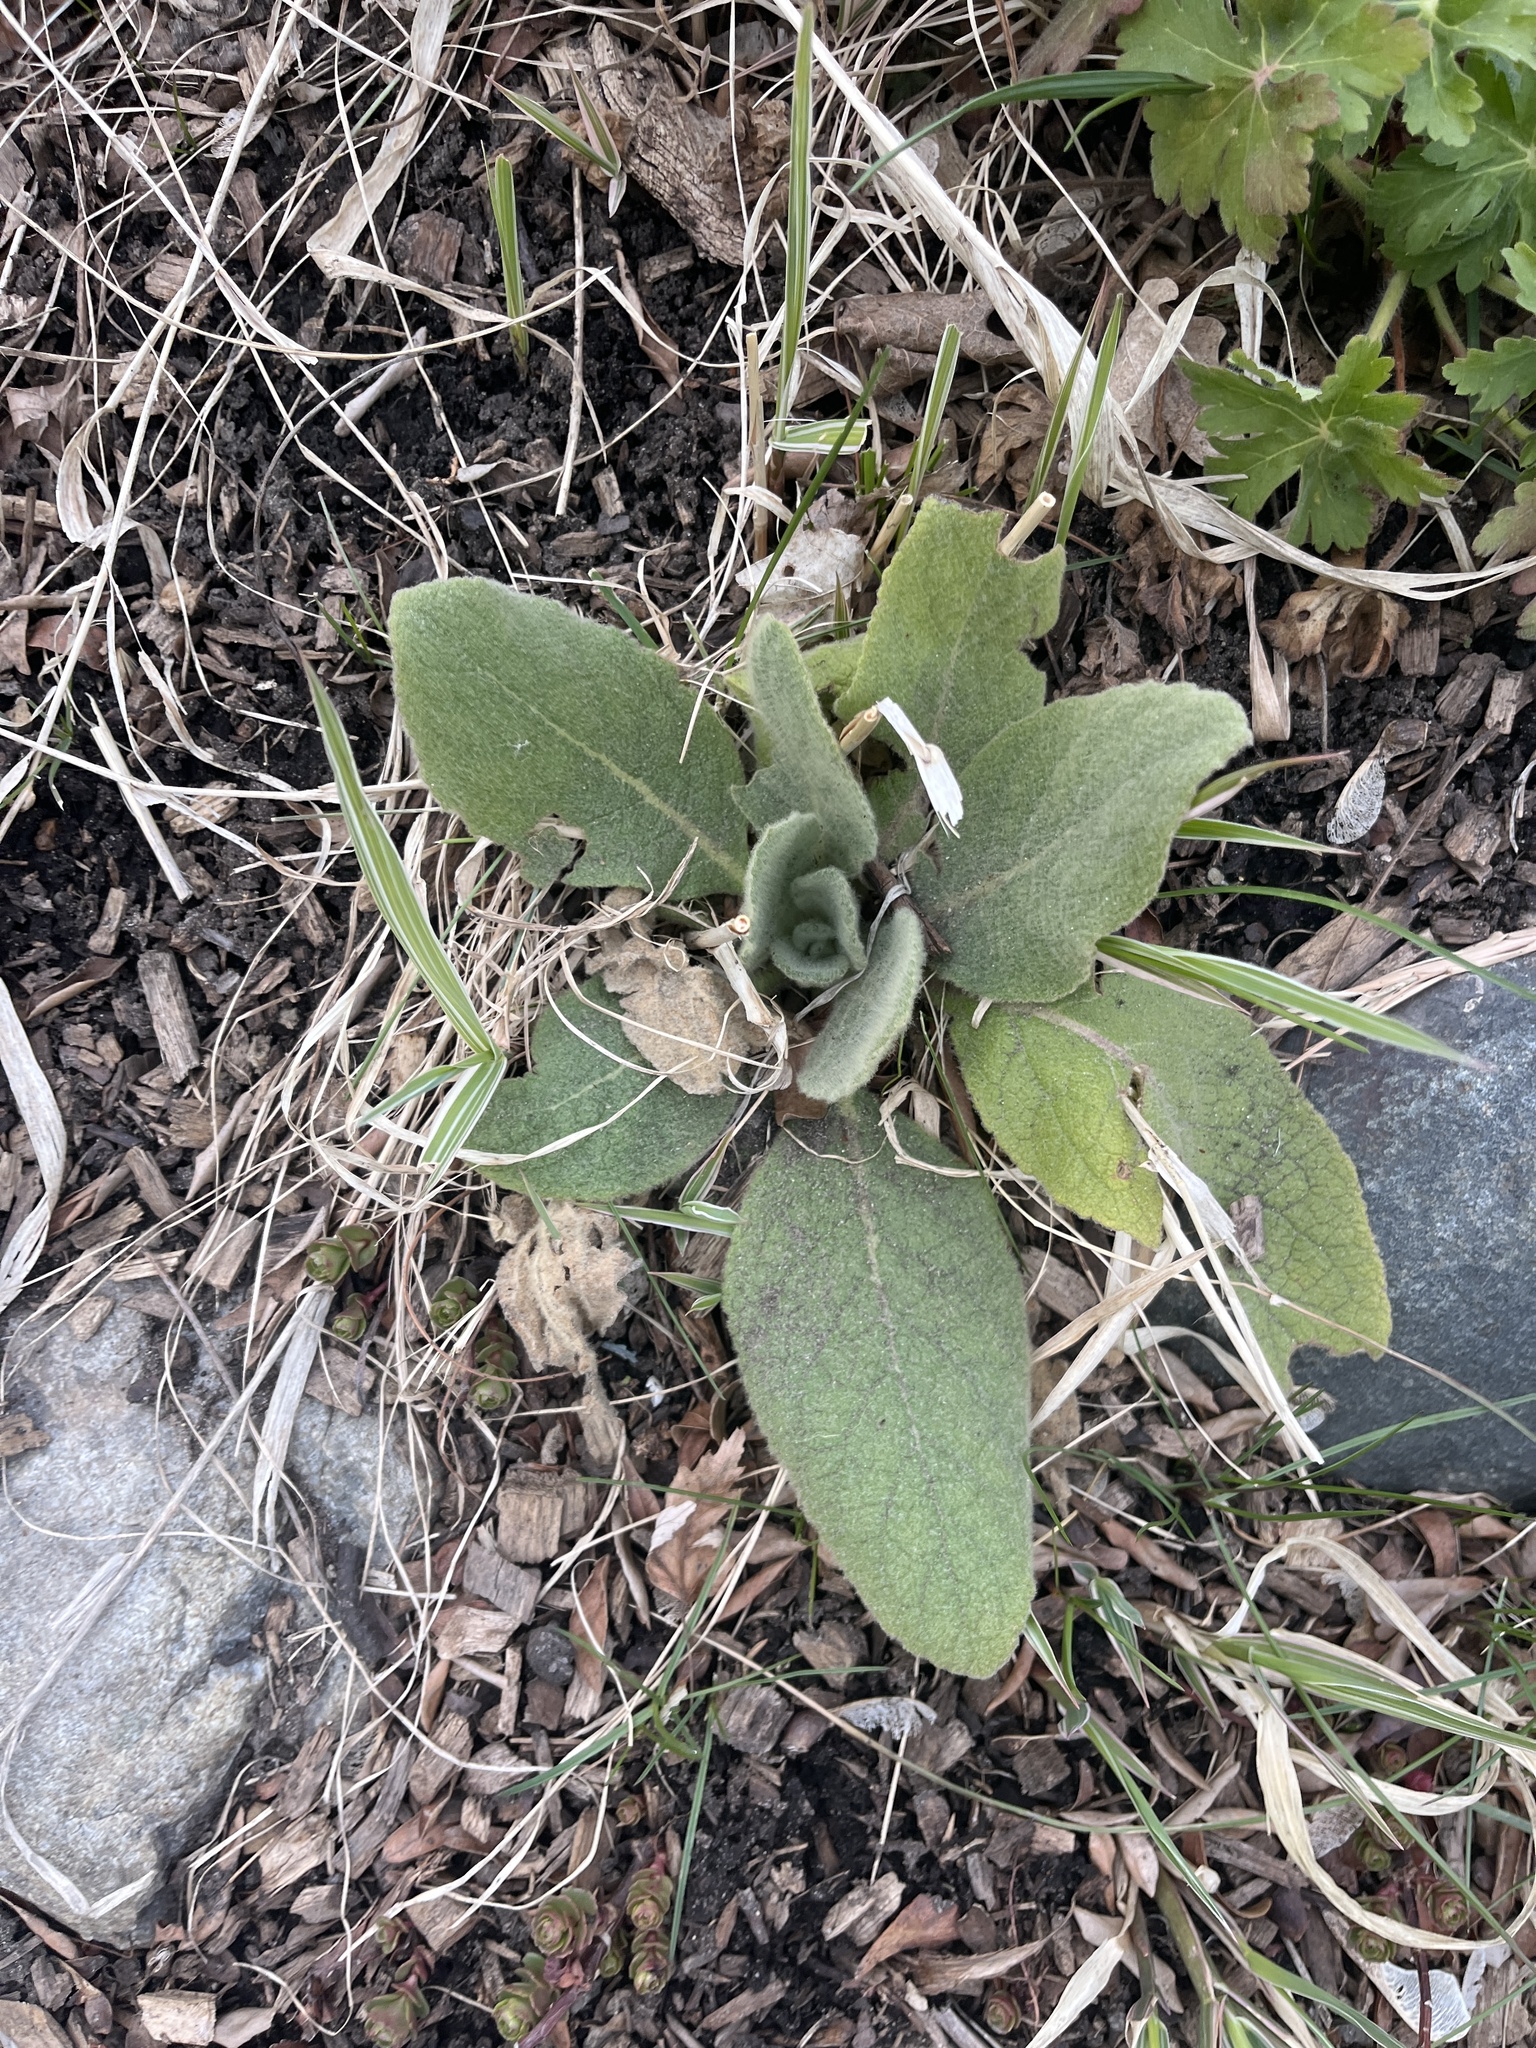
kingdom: Plantae
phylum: Tracheophyta
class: Magnoliopsida
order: Lamiales
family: Scrophulariaceae
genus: Verbascum
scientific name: Verbascum thapsus
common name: Common mullein
